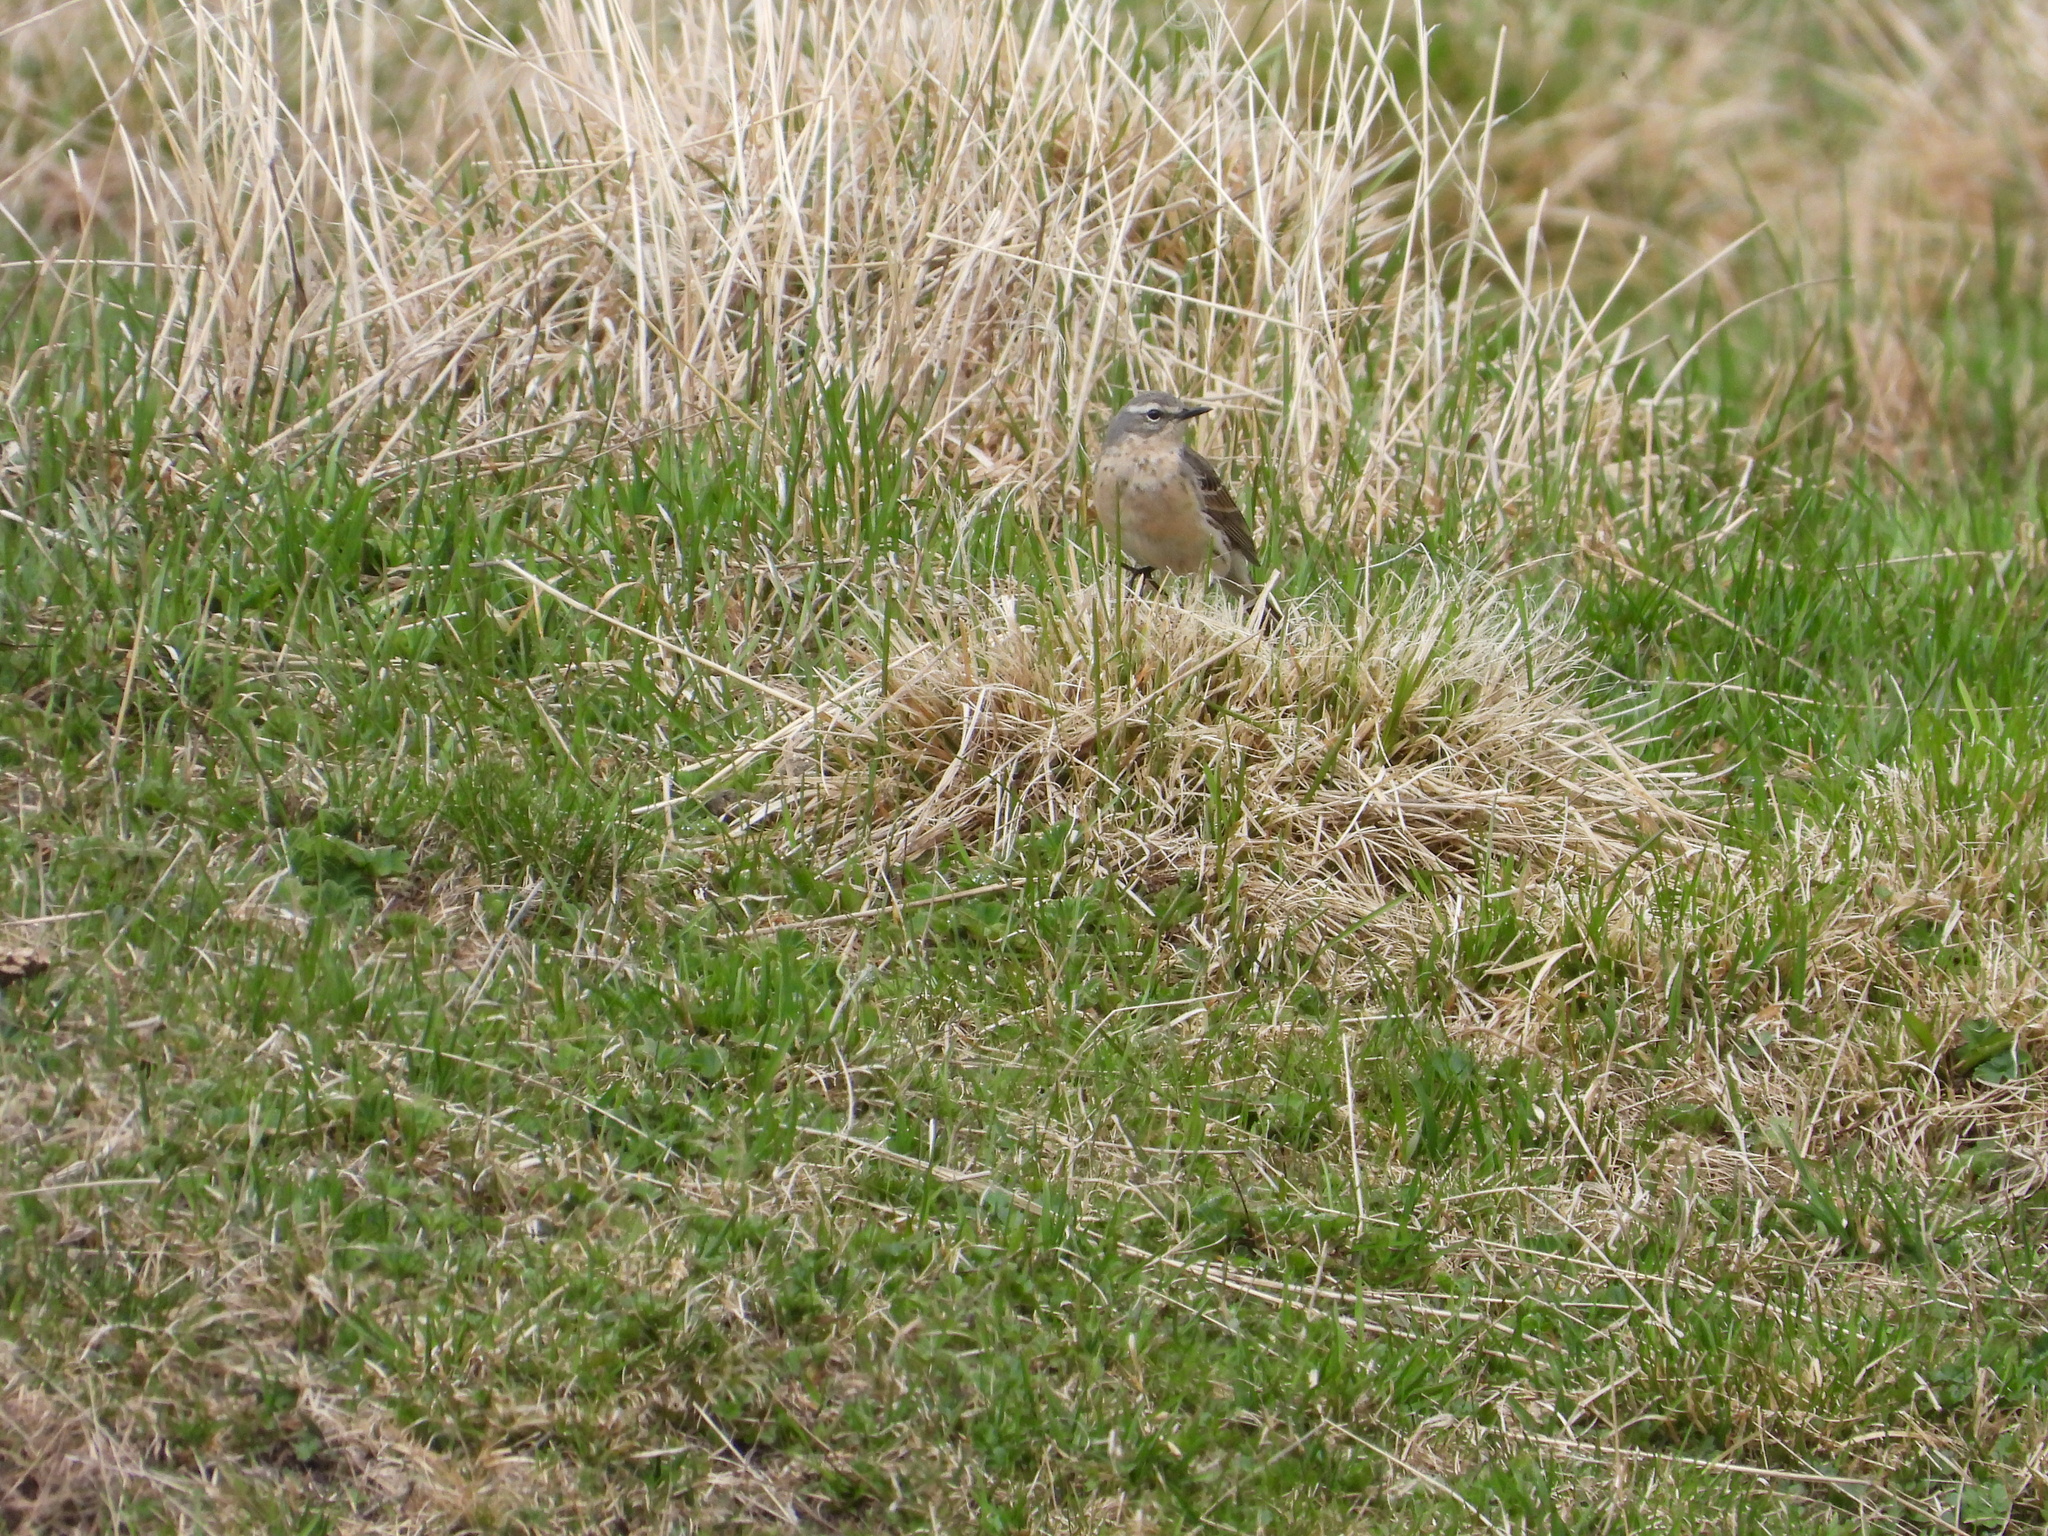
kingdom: Animalia
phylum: Chordata
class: Aves
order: Passeriformes
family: Motacillidae
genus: Anthus
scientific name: Anthus spinoletta
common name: Water pipit
